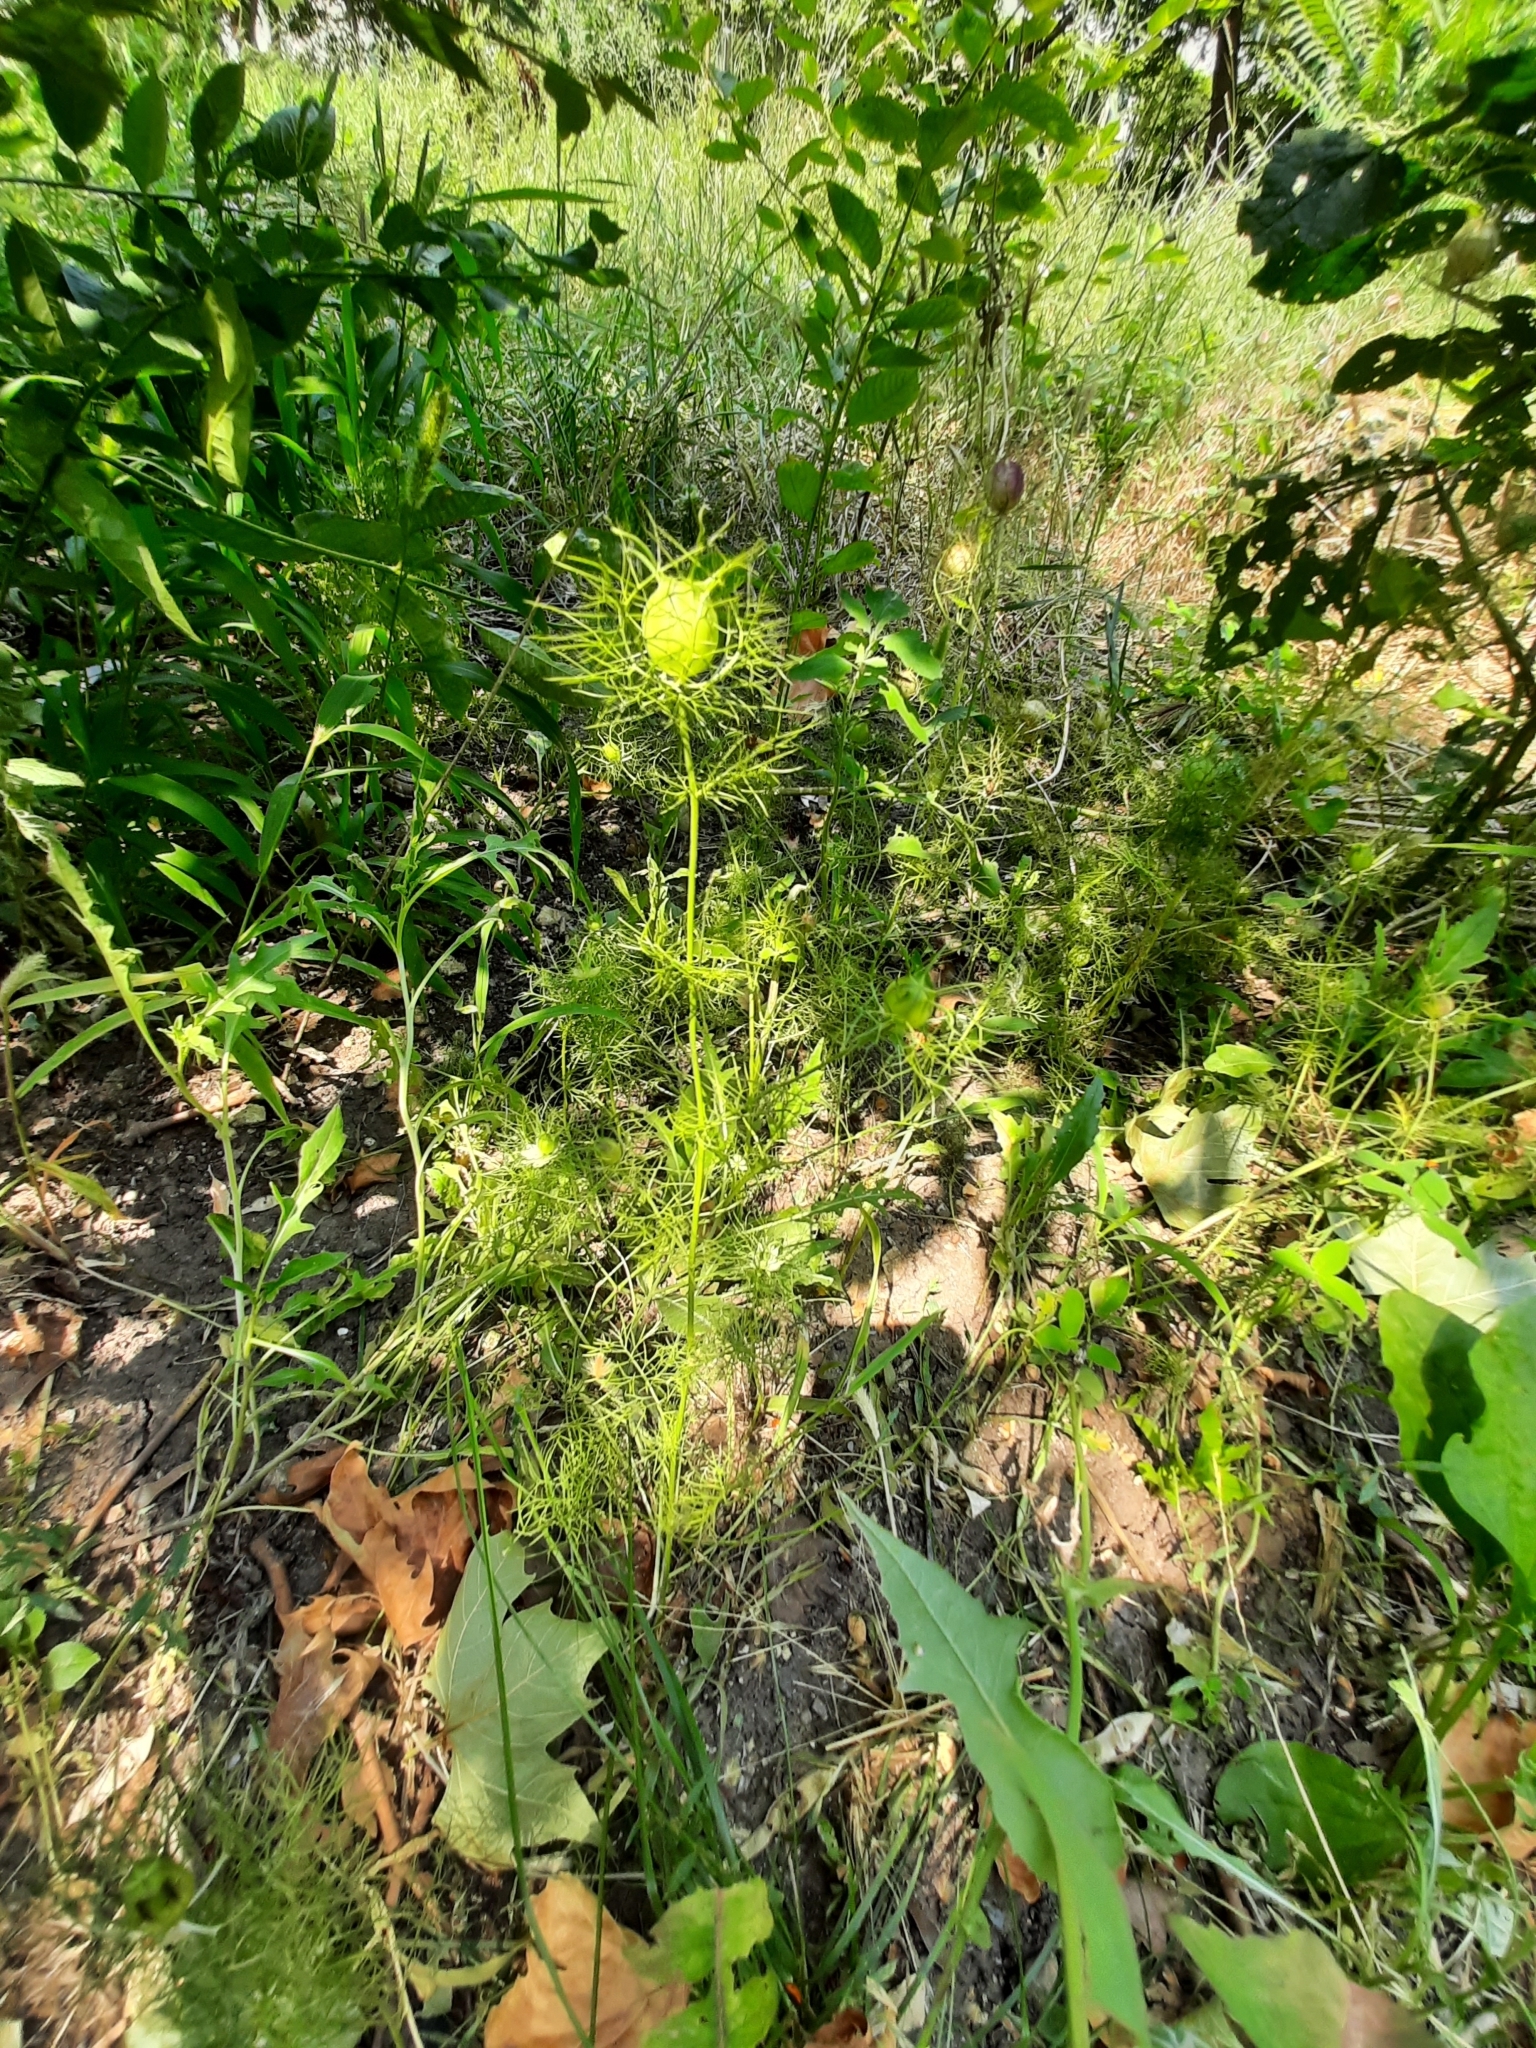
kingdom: Plantae
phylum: Tracheophyta
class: Magnoliopsida
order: Ranunculales
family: Ranunculaceae
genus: Nigella
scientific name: Nigella damascena
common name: Love-in-a-mist
